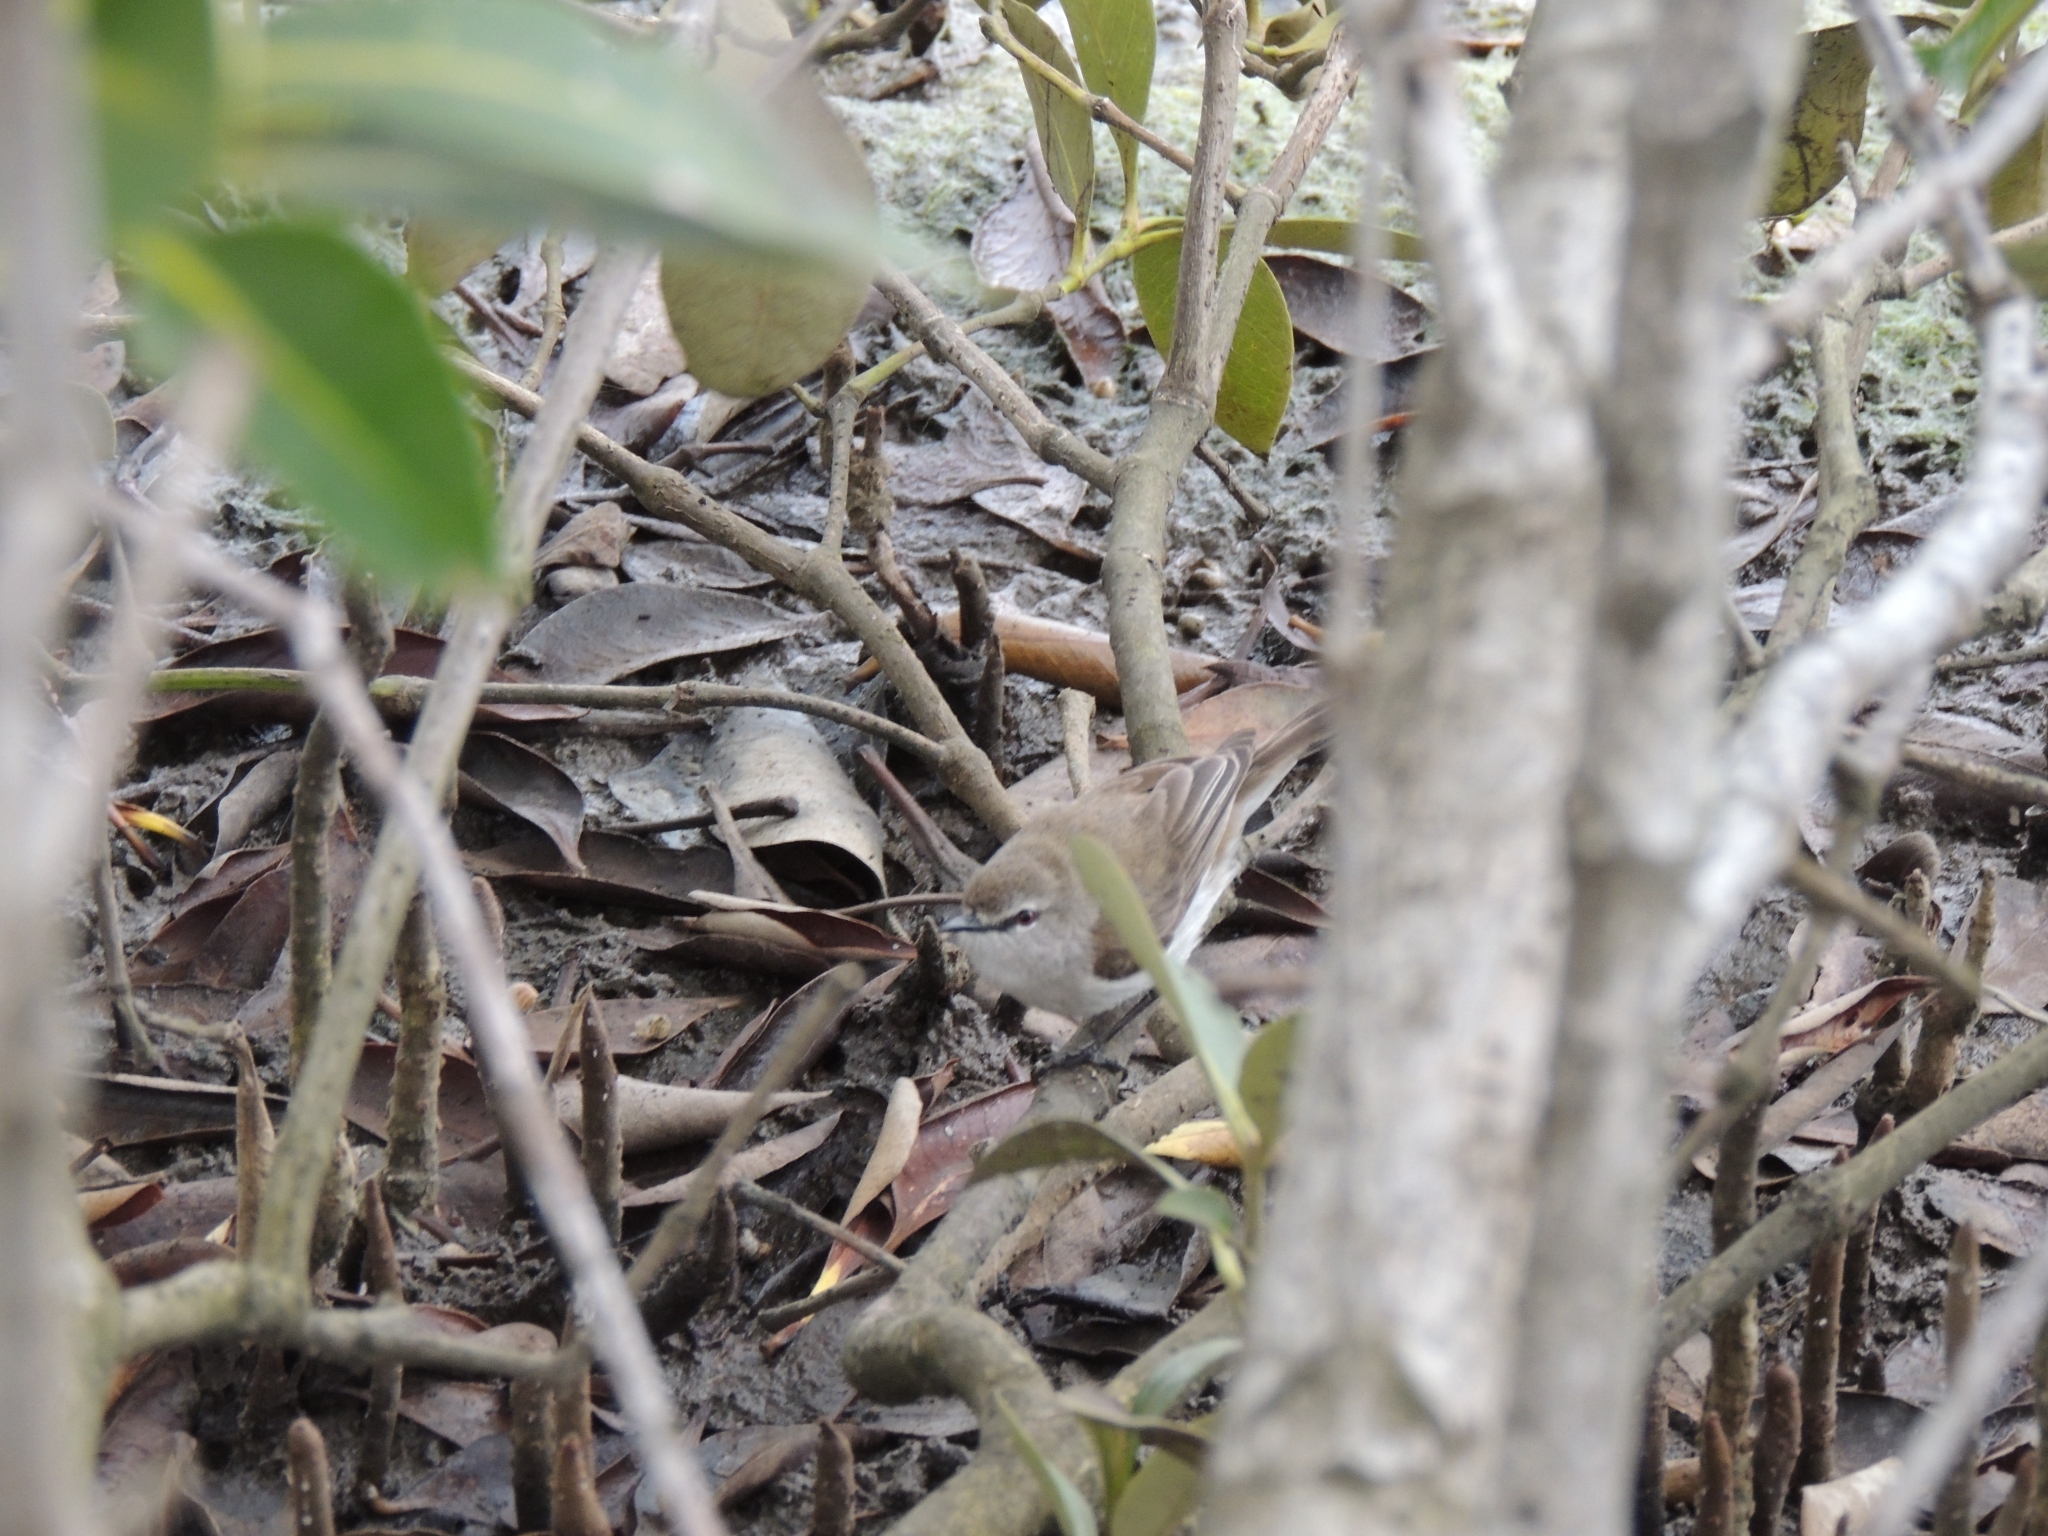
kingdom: Animalia
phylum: Chordata
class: Aves
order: Passeriformes
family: Acanthizidae
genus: Gerygone
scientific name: Gerygone levigaster
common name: Mangrove gerygone
